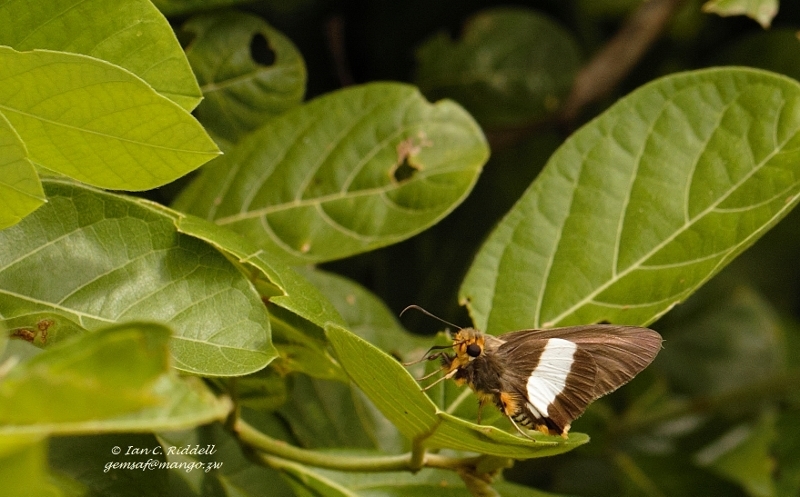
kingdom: Animalia
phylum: Arthropoda
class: Insecta
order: Lepidoptera
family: Hesperiidae
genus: Coeliades
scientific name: Coeliades forestan
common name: Striped policeman
